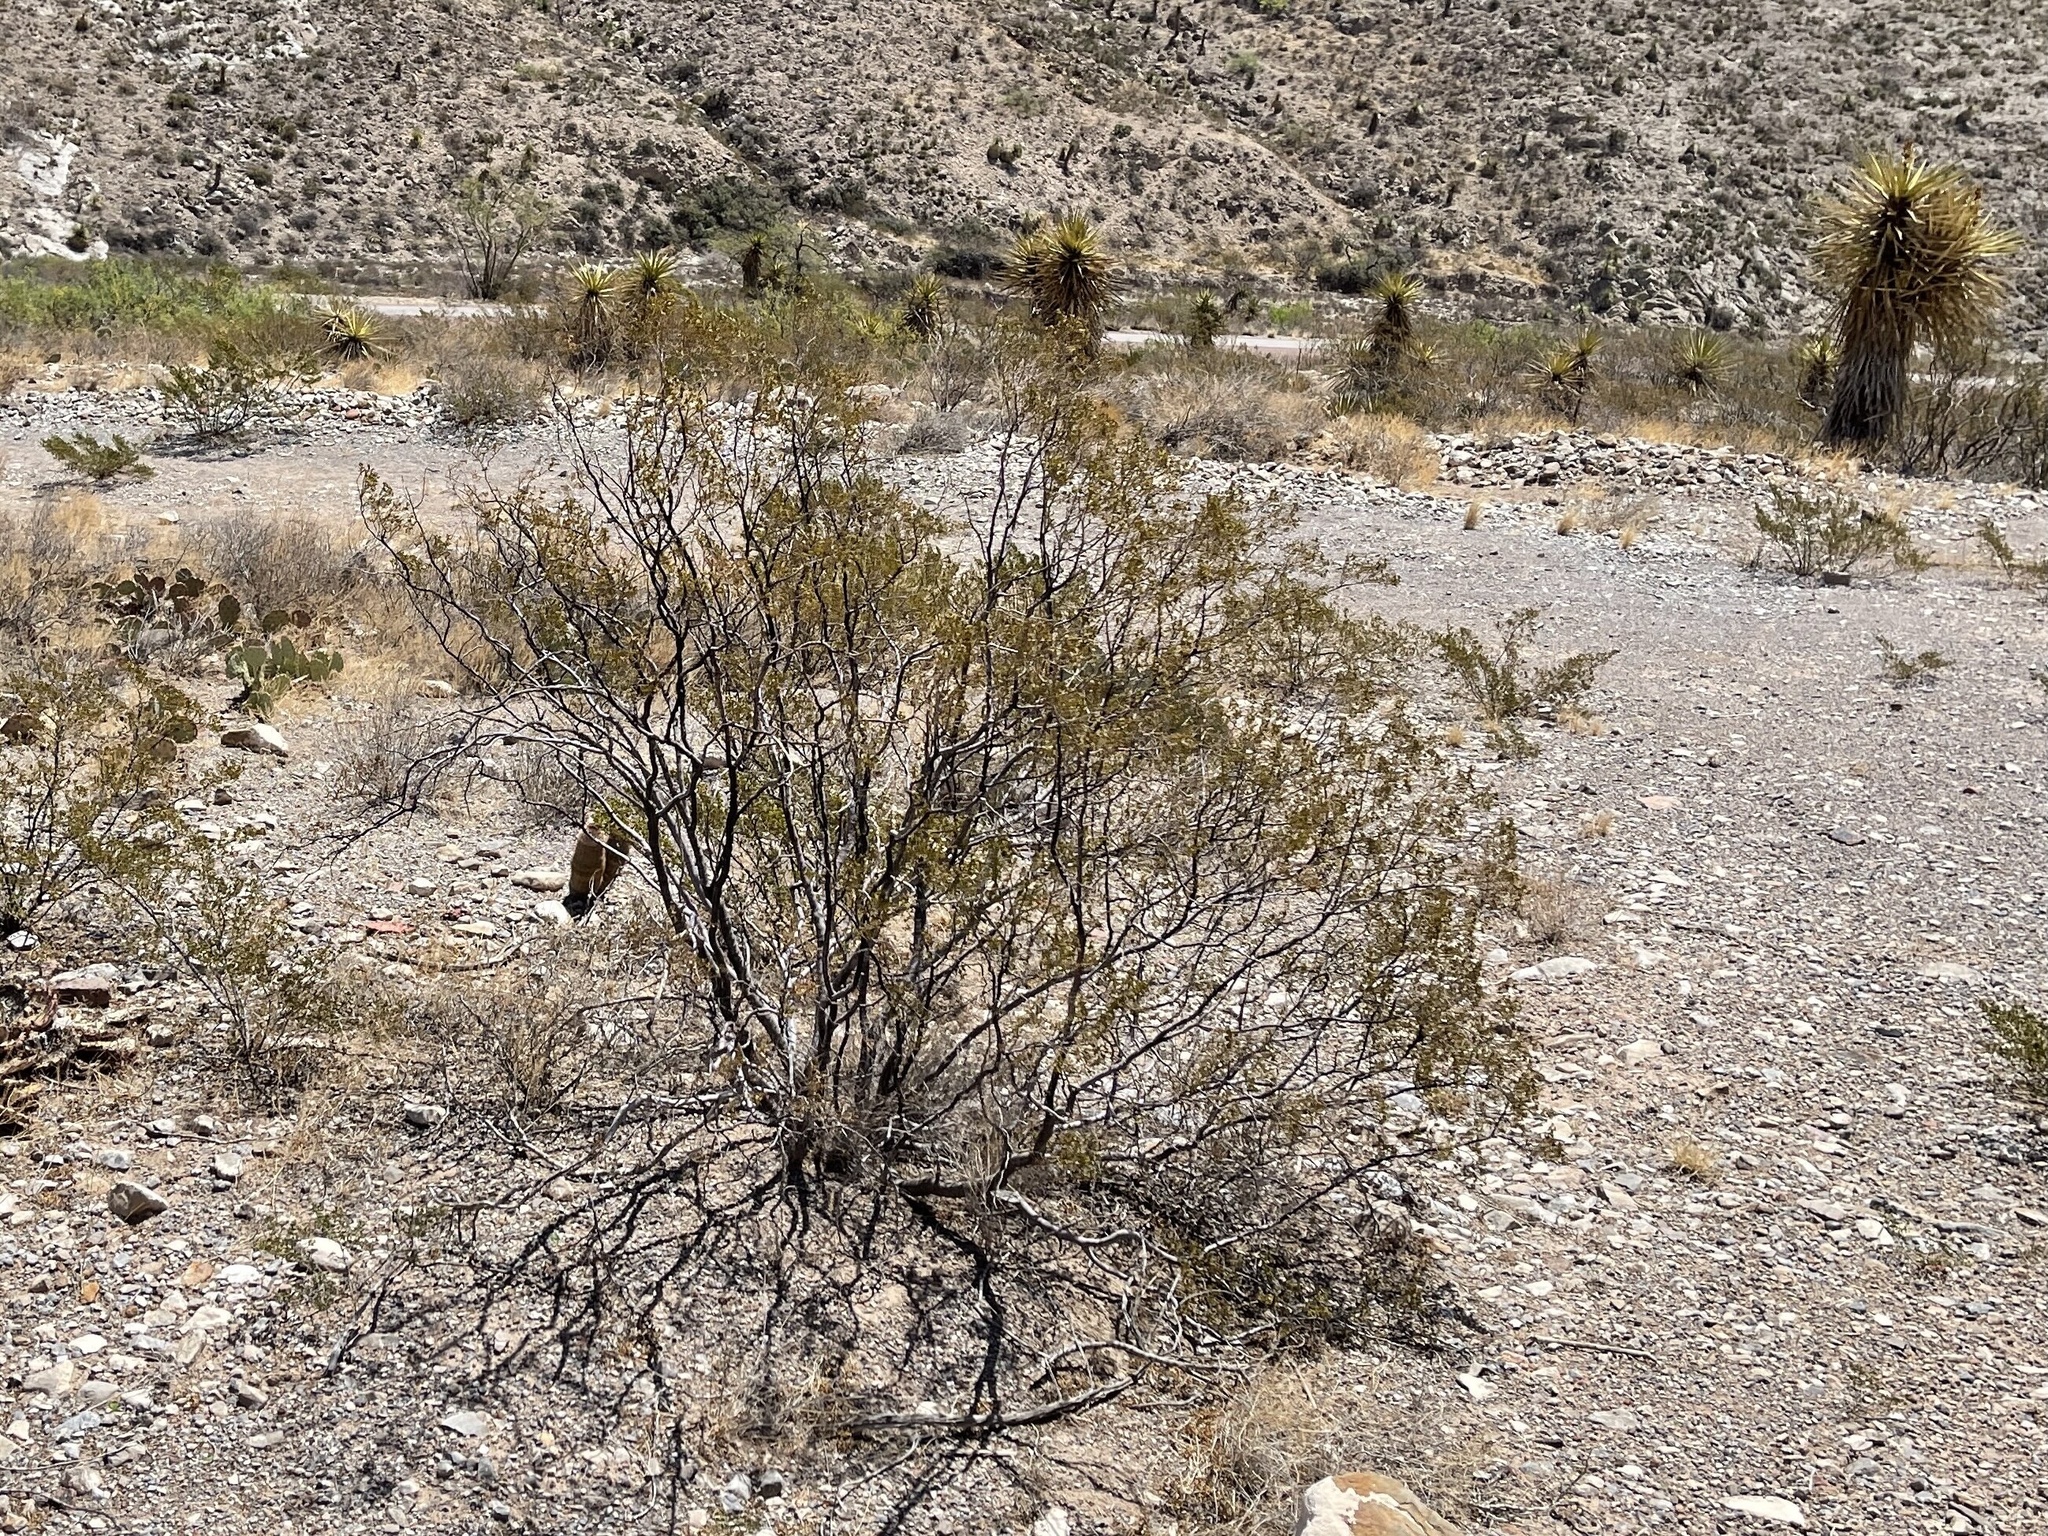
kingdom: Plantae
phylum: Tracheophyta
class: Magnoliopsida
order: Zygophyllales
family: Zygophyllaceae
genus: Larrea
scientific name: Larrea tridentata
